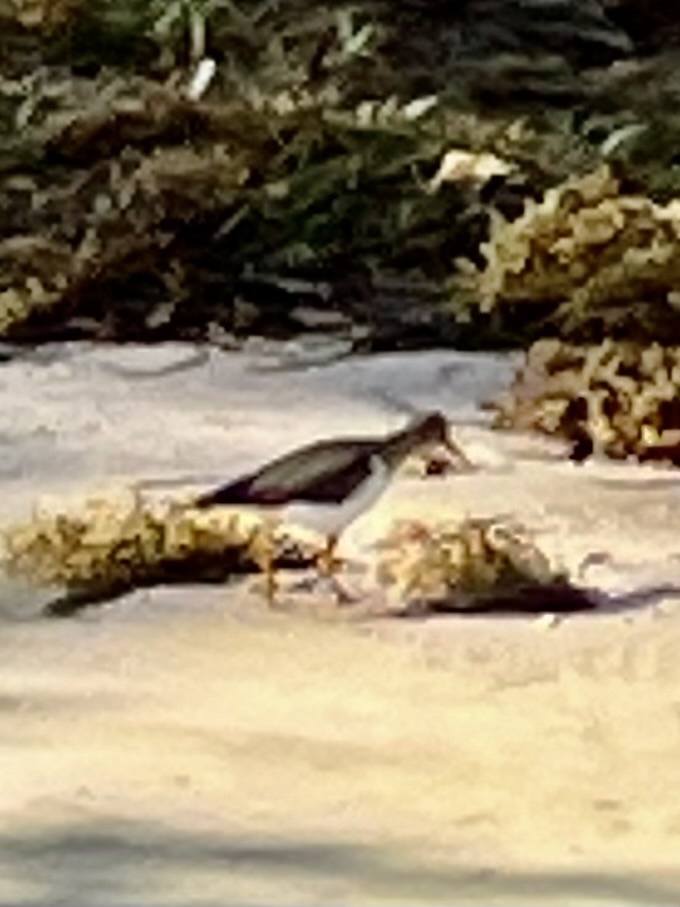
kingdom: Animalia
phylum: Chordata
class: Aves
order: Charadriiformes
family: Scolopacidae
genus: Actitis
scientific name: Actitis macularius
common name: Spotted sandpiper
